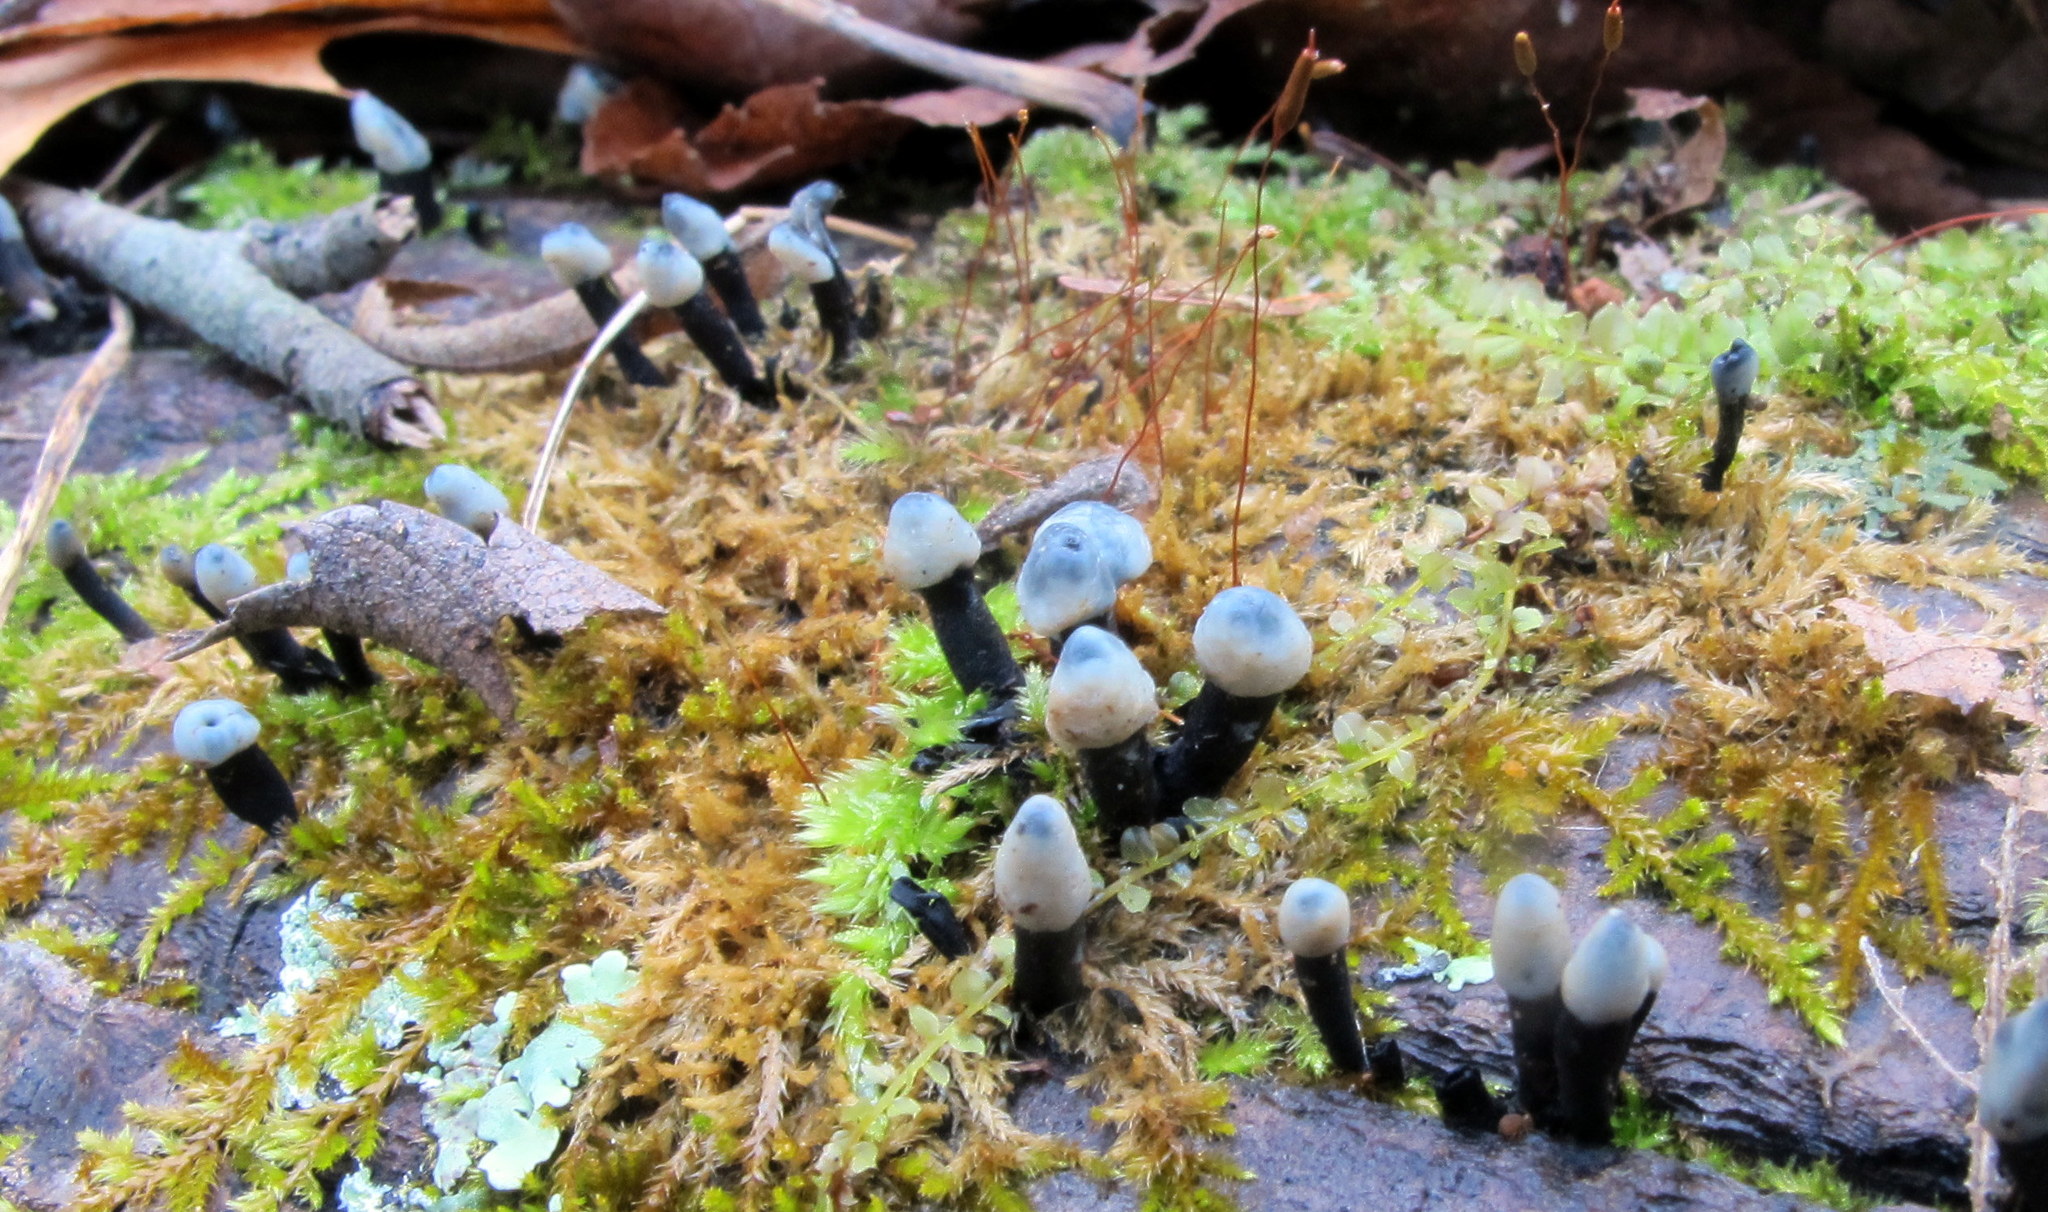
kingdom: Fungi
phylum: Ascomycota
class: Leotiomycetes
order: Helotiales
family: Bulgariaceae
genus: Holwaya
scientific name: Holwaya mucida
